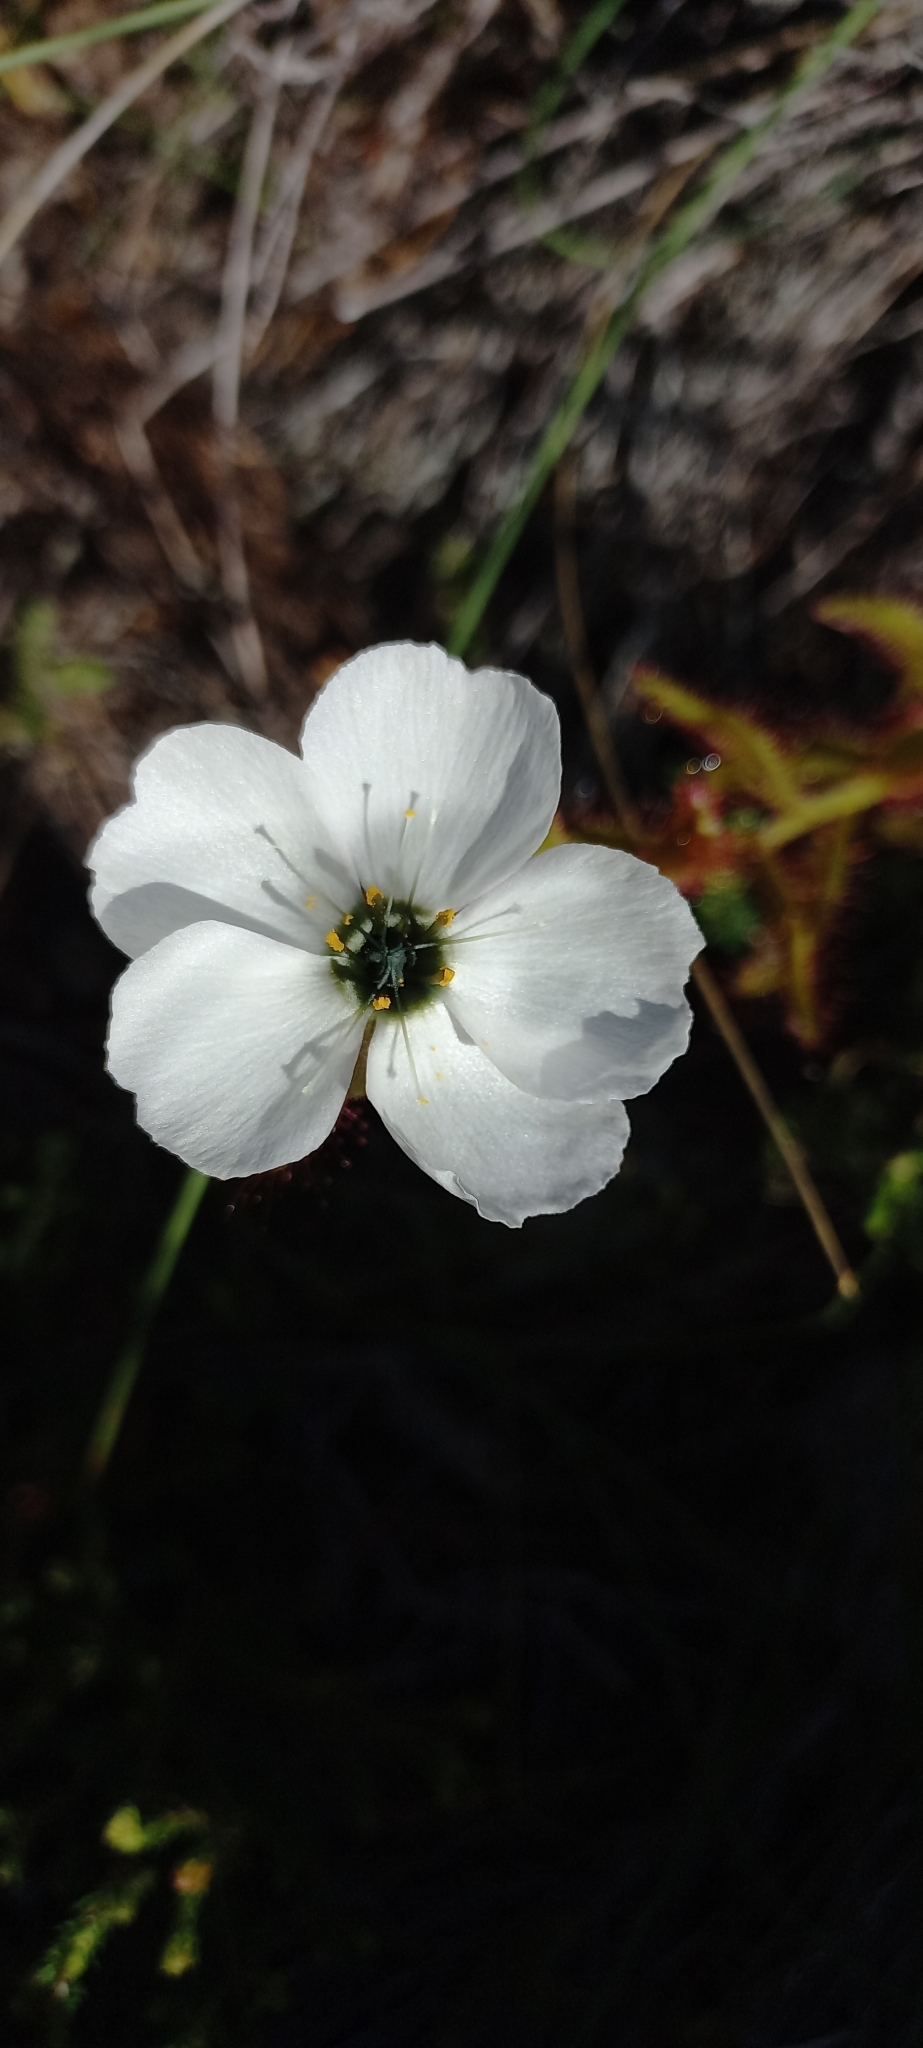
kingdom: Plantae
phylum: Tracheophyta
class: Magnoliopsida
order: Caryophyllales
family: Droseraceae
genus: Drosera
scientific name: Drosera cistiflora
